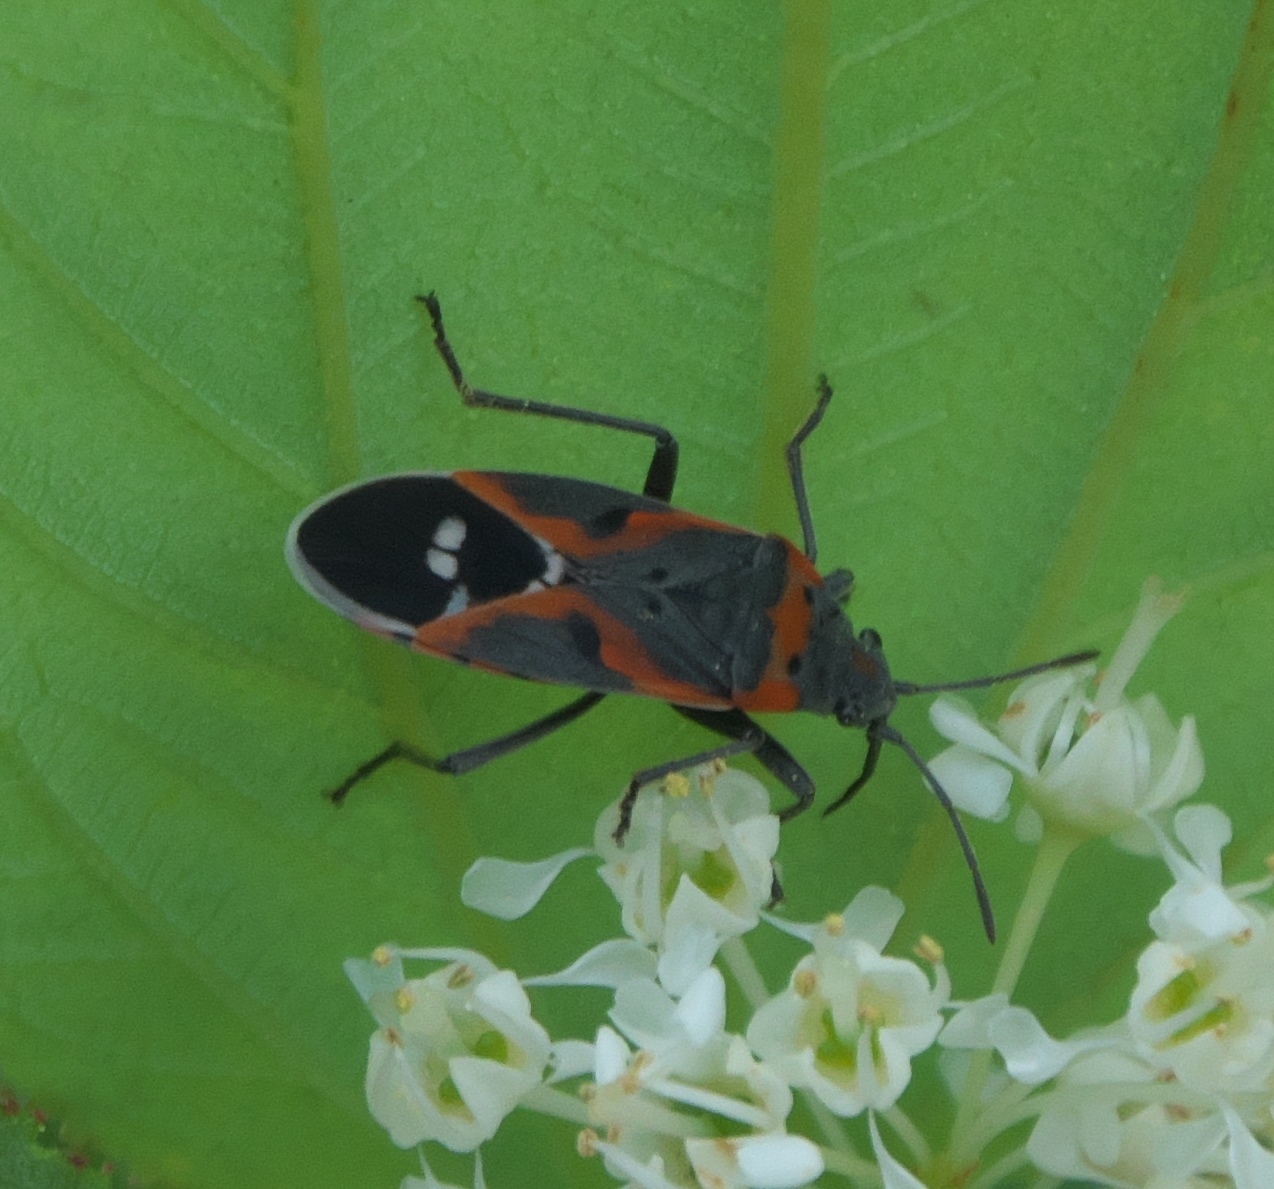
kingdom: Animalia
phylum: Arthropoda
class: Insecta
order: Hemiptera
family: Lygaeidae
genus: Lygaeus
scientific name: Lygaeus kalmii
